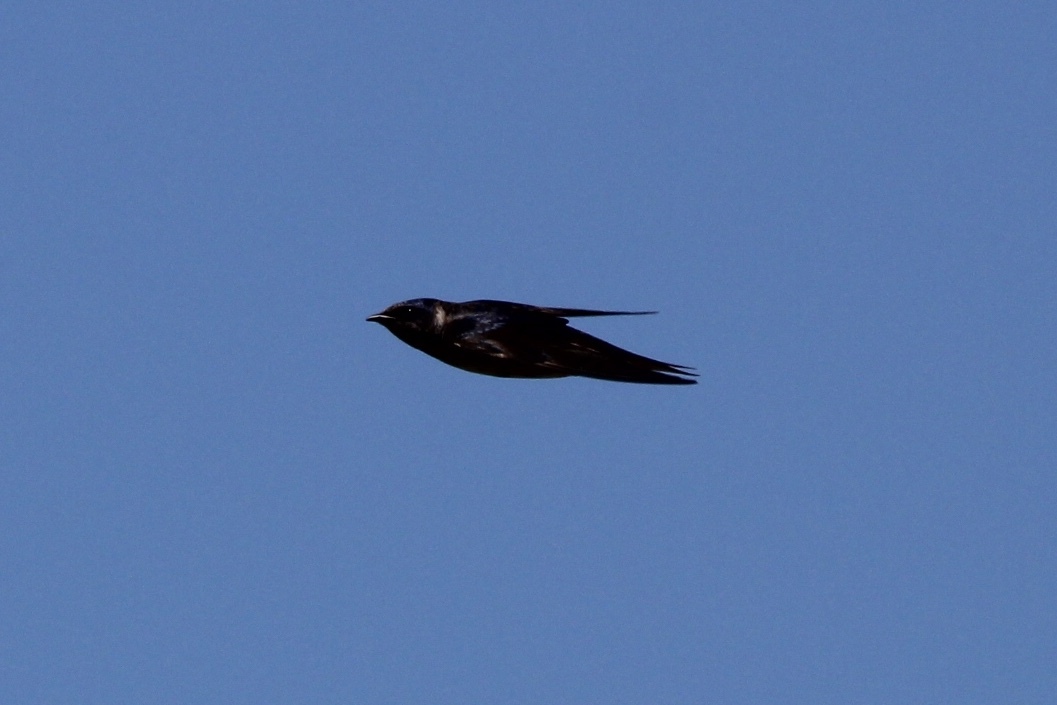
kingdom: Animalia
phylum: Chordata
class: Aves
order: Passeriformes
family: Hirundinidae
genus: Progne
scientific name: Progne subis
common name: Purple martin
